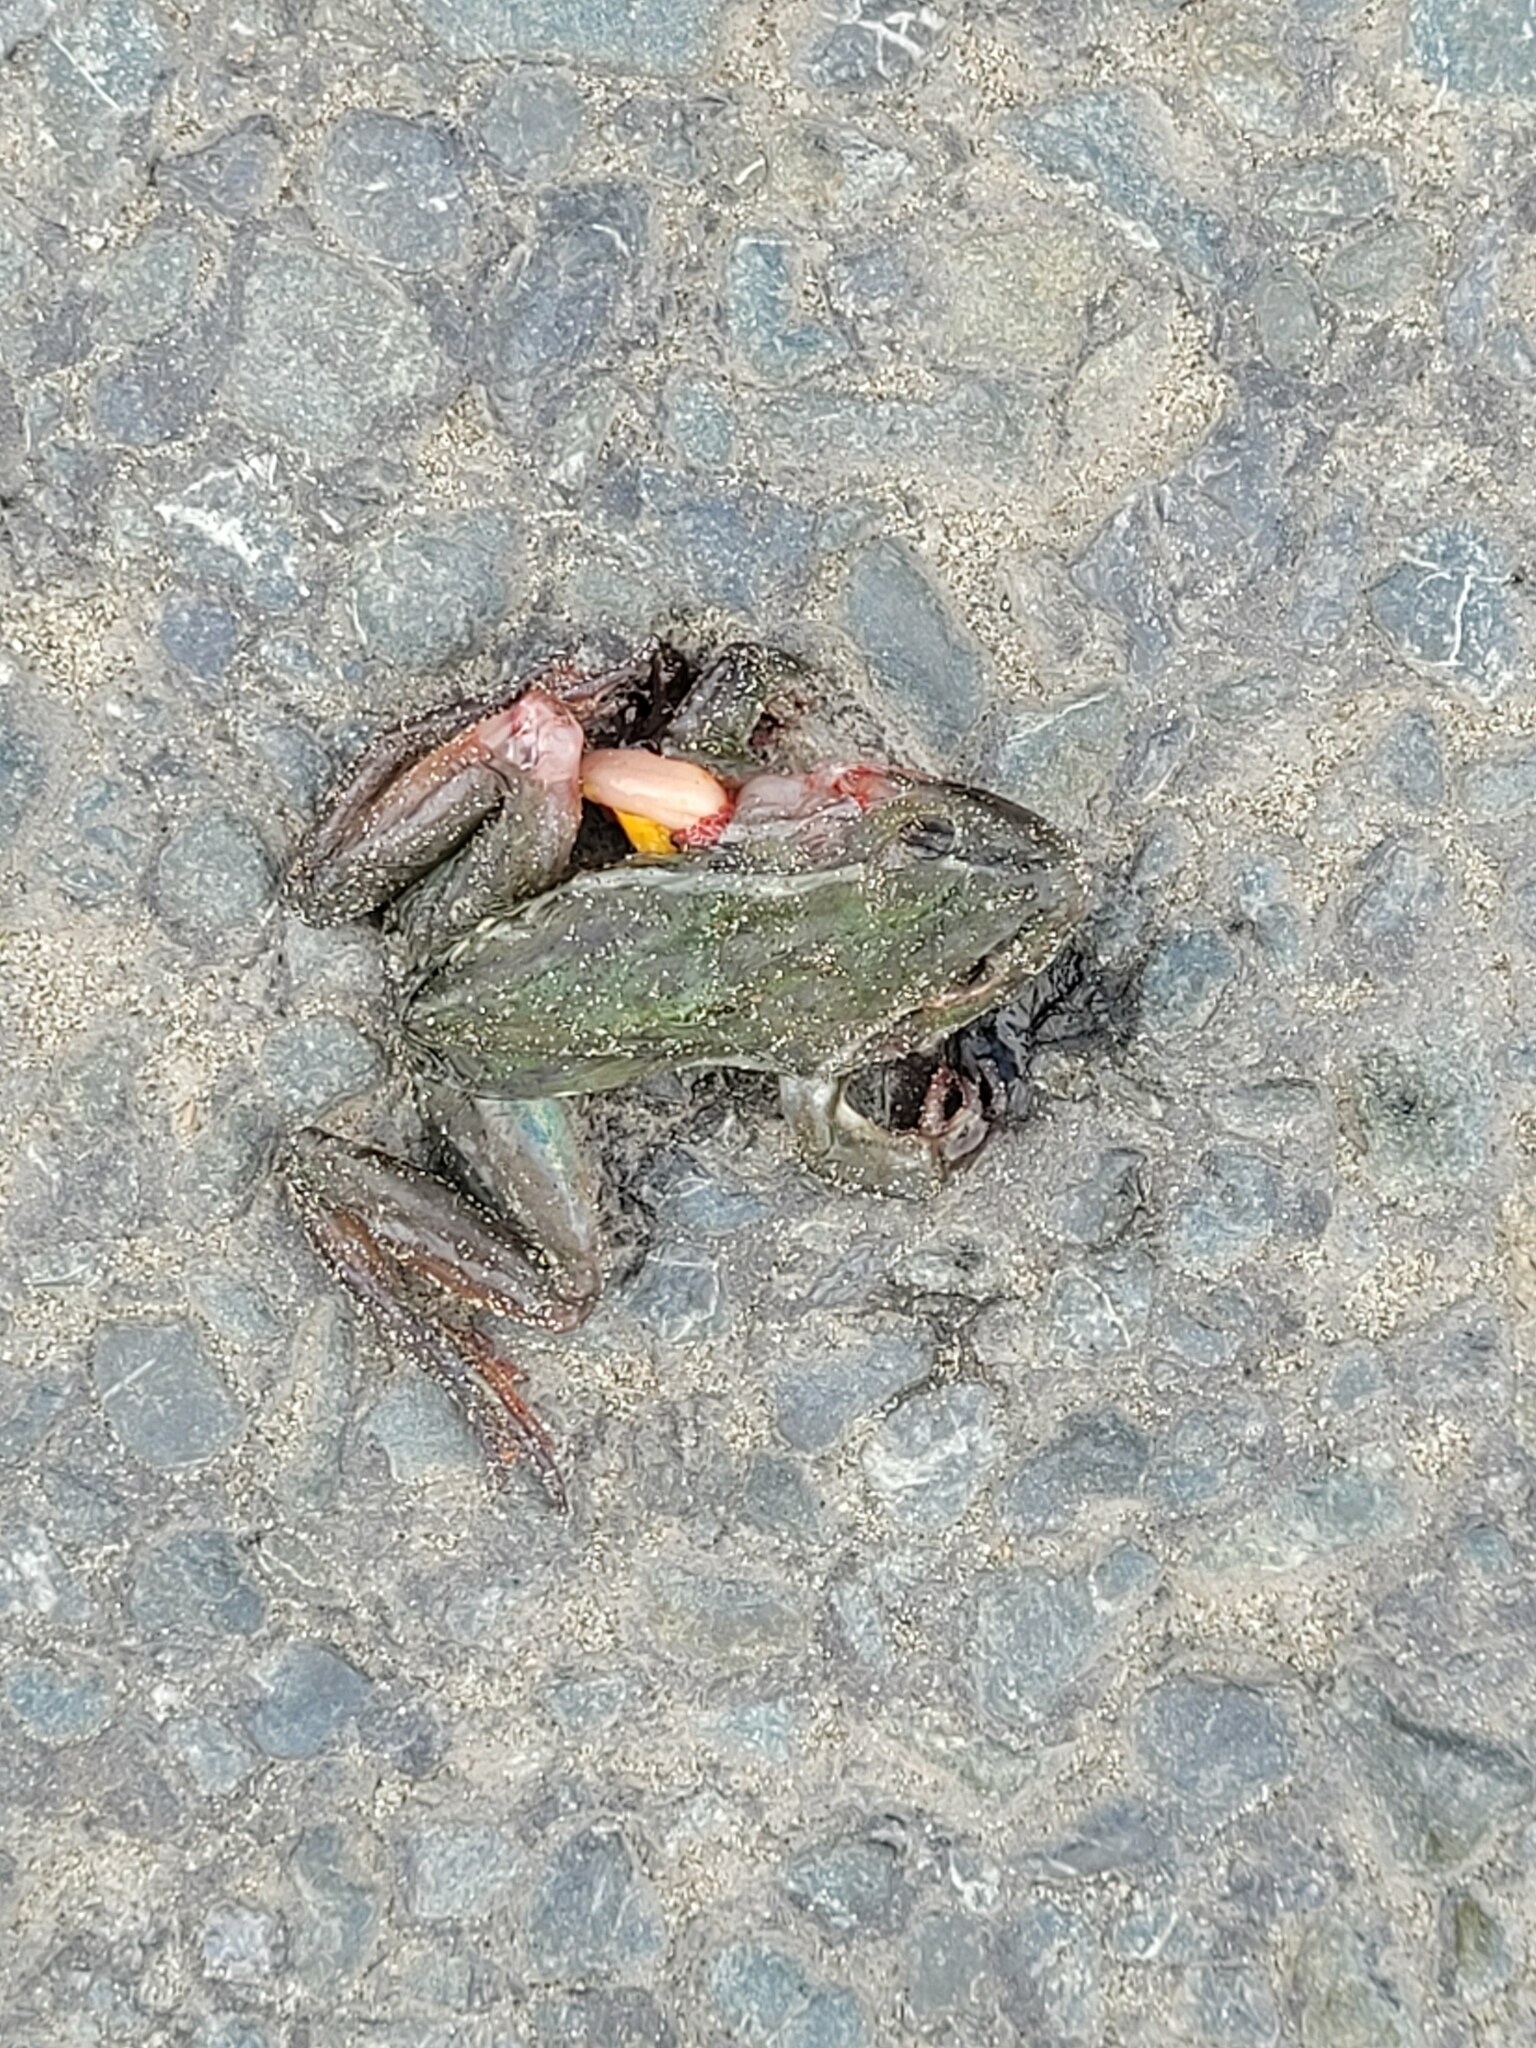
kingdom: Animalia
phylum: Chordata
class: Amphibia
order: Anura
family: Pelodryadidae
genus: Ranoidea
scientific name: Ranoidea aurea
